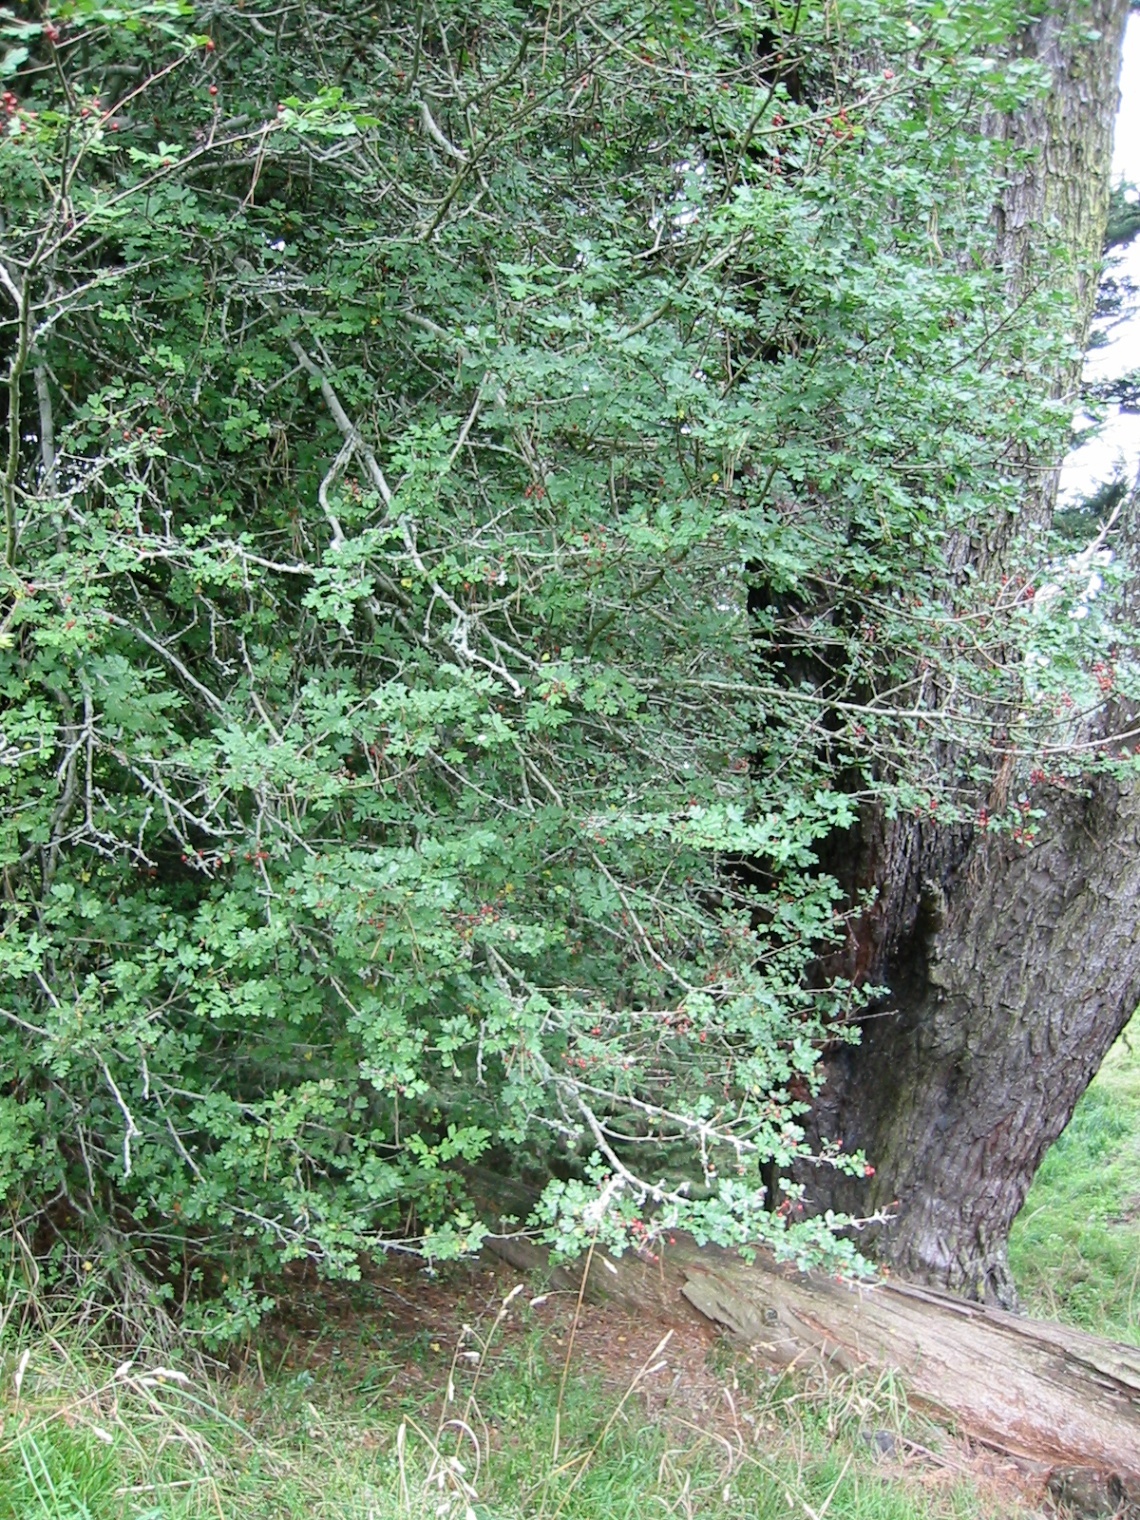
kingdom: Plantae
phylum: Tracheophyta
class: Magnoliopsida
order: Rosales
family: Rosaceae
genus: Crataegus
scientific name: Crataegus monogyna
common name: Hawthorn
